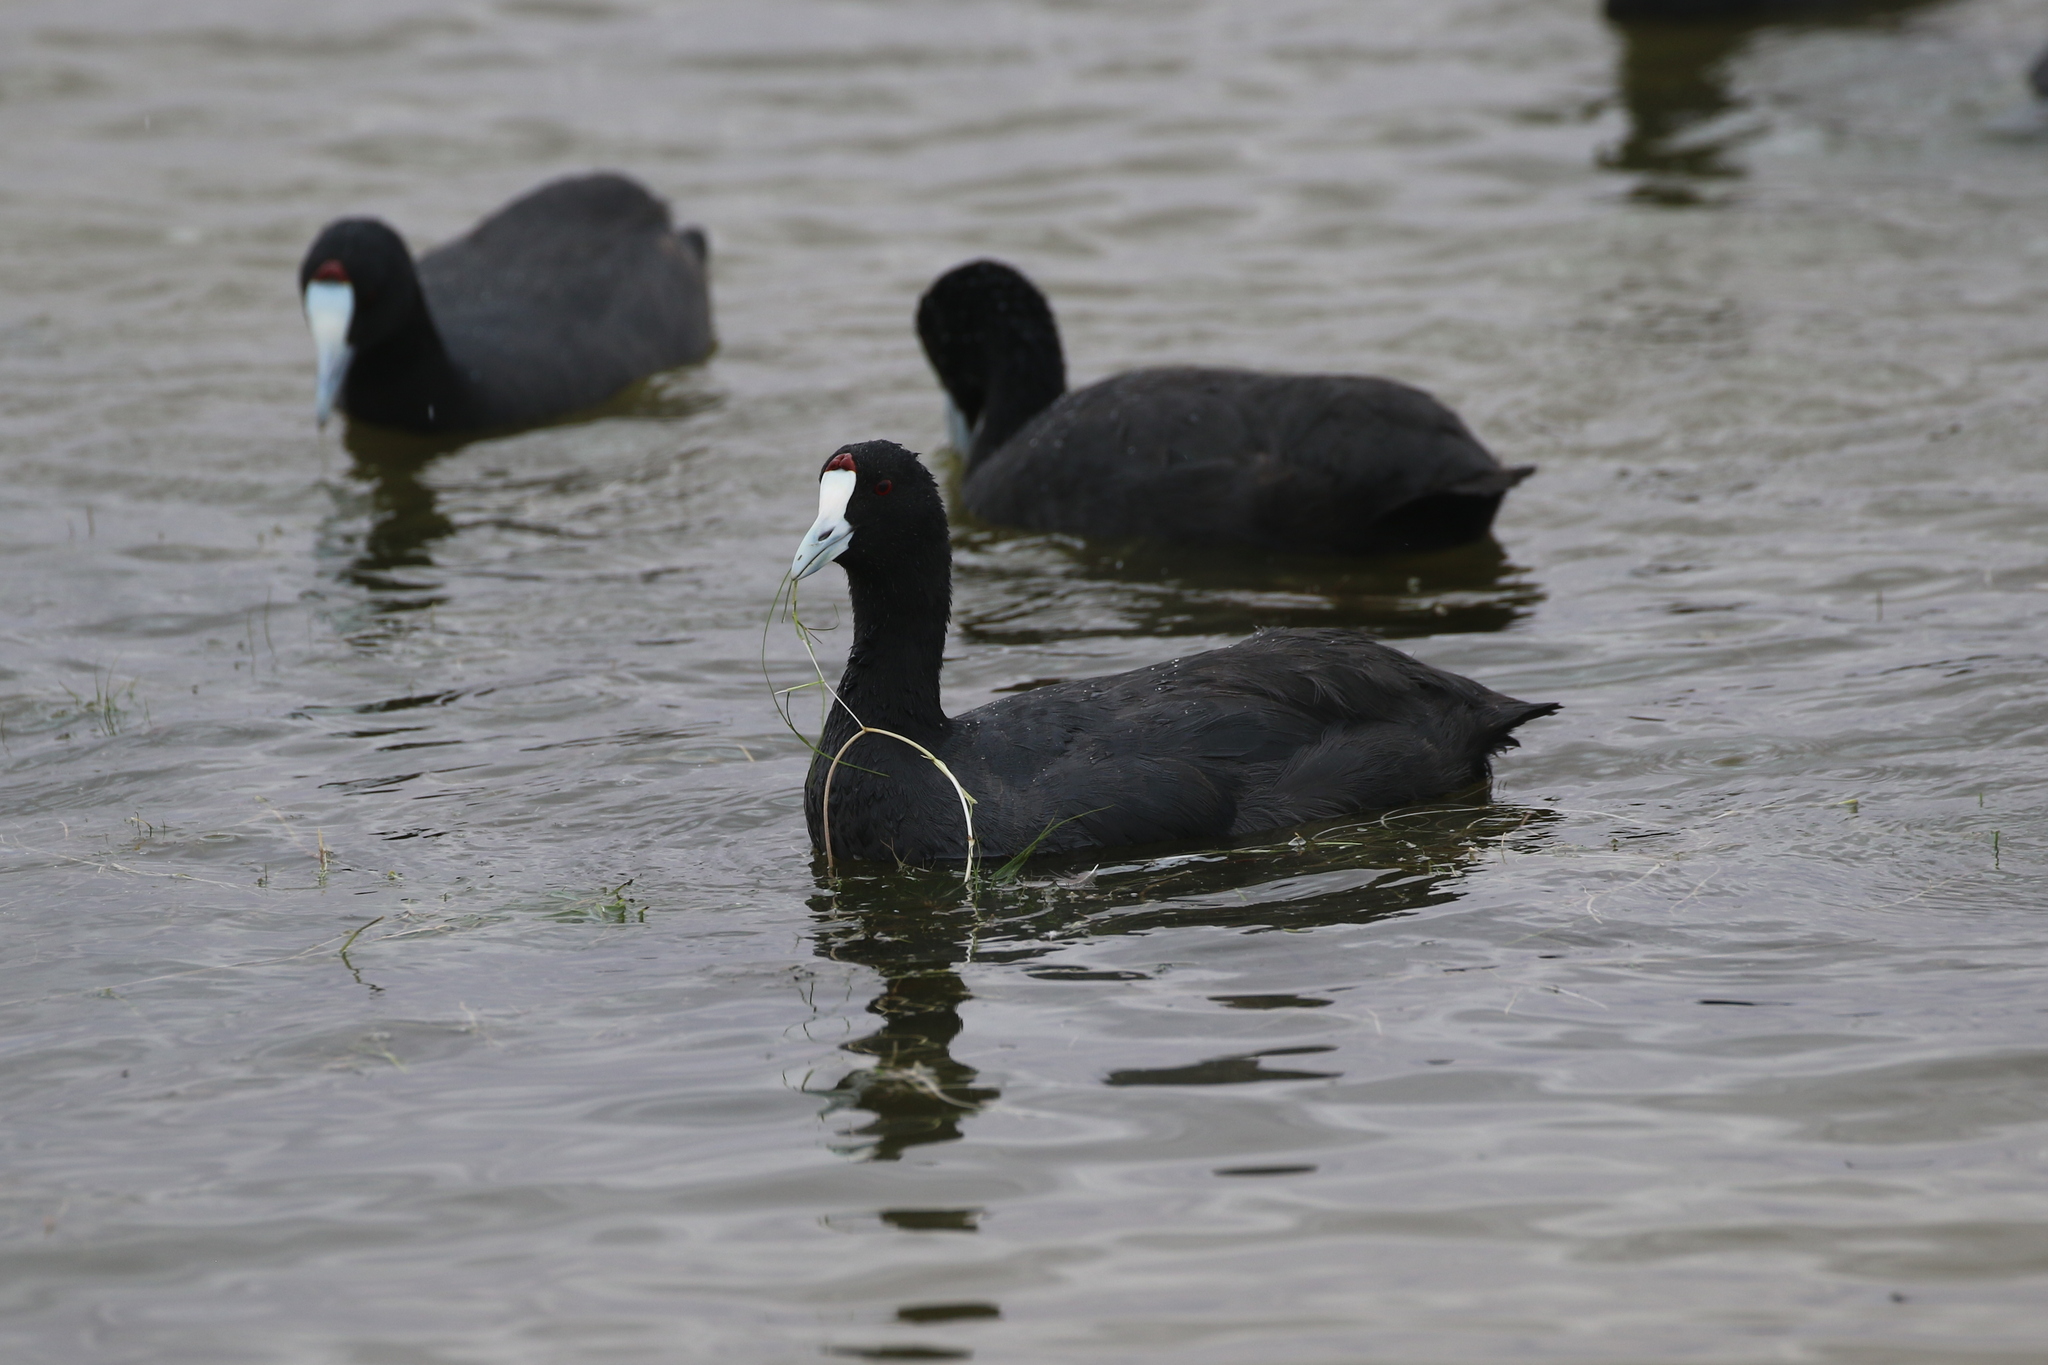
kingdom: Animalia
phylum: Chordata
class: Aves
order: Gruiformes
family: Rallidae
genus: Fulica
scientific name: Fulica cristata
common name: Red-knobbed coot
